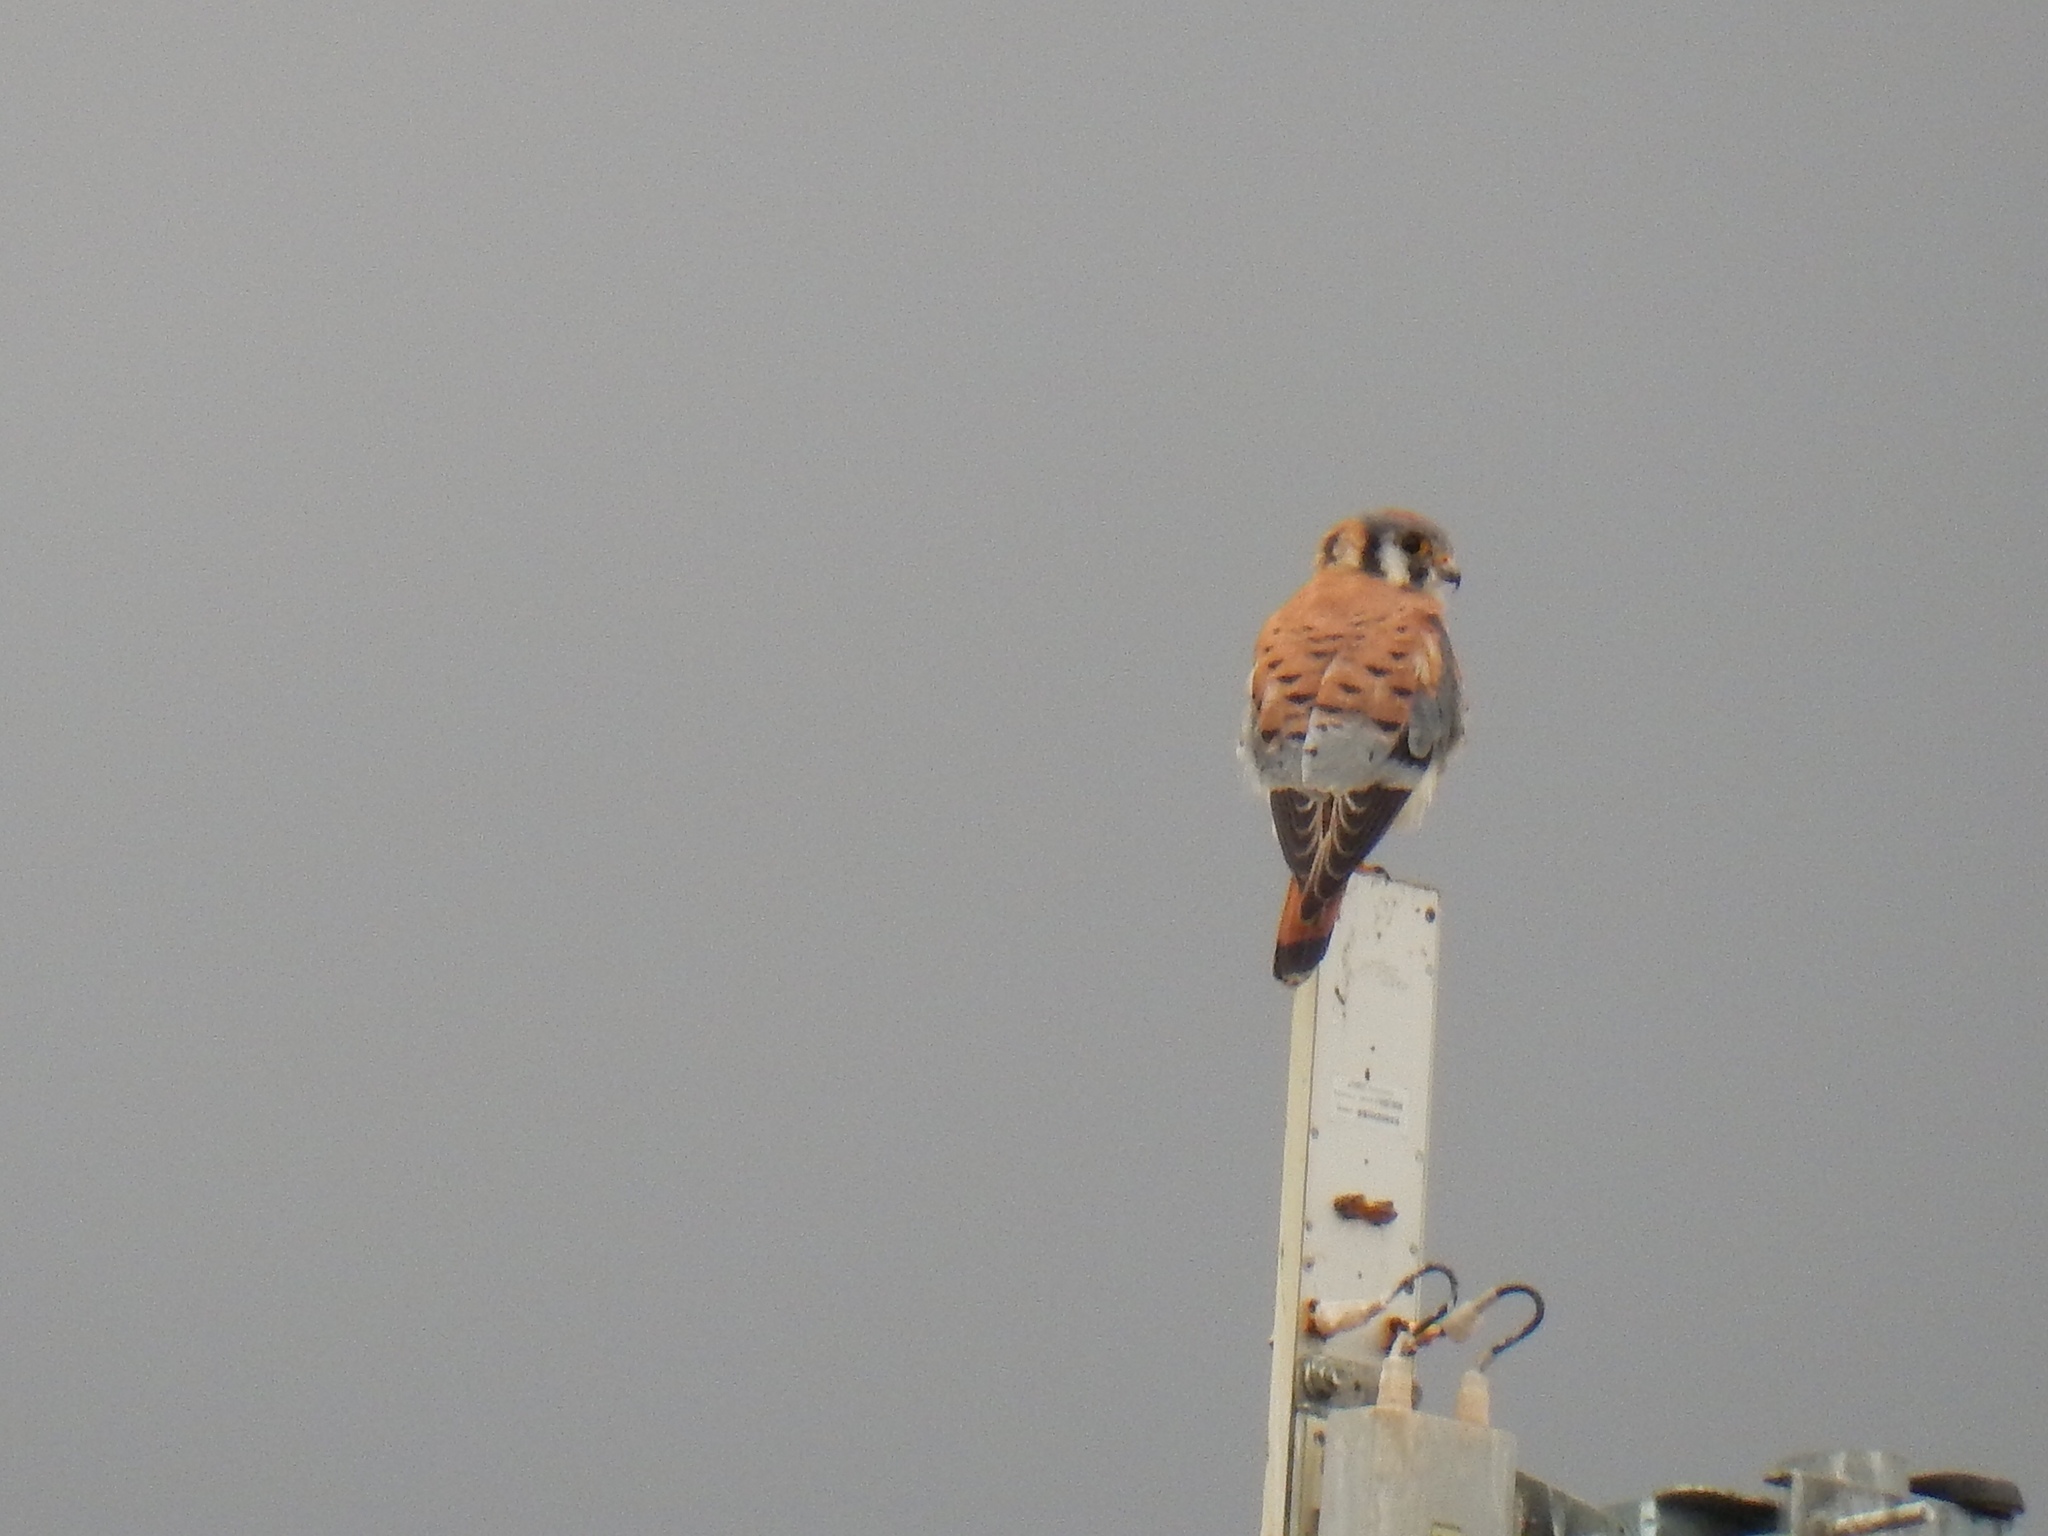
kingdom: Animalia
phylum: Chordata
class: Aves
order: Falconiformes
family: Falconidae
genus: Falco
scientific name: Falco sparverius
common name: American kestrel
